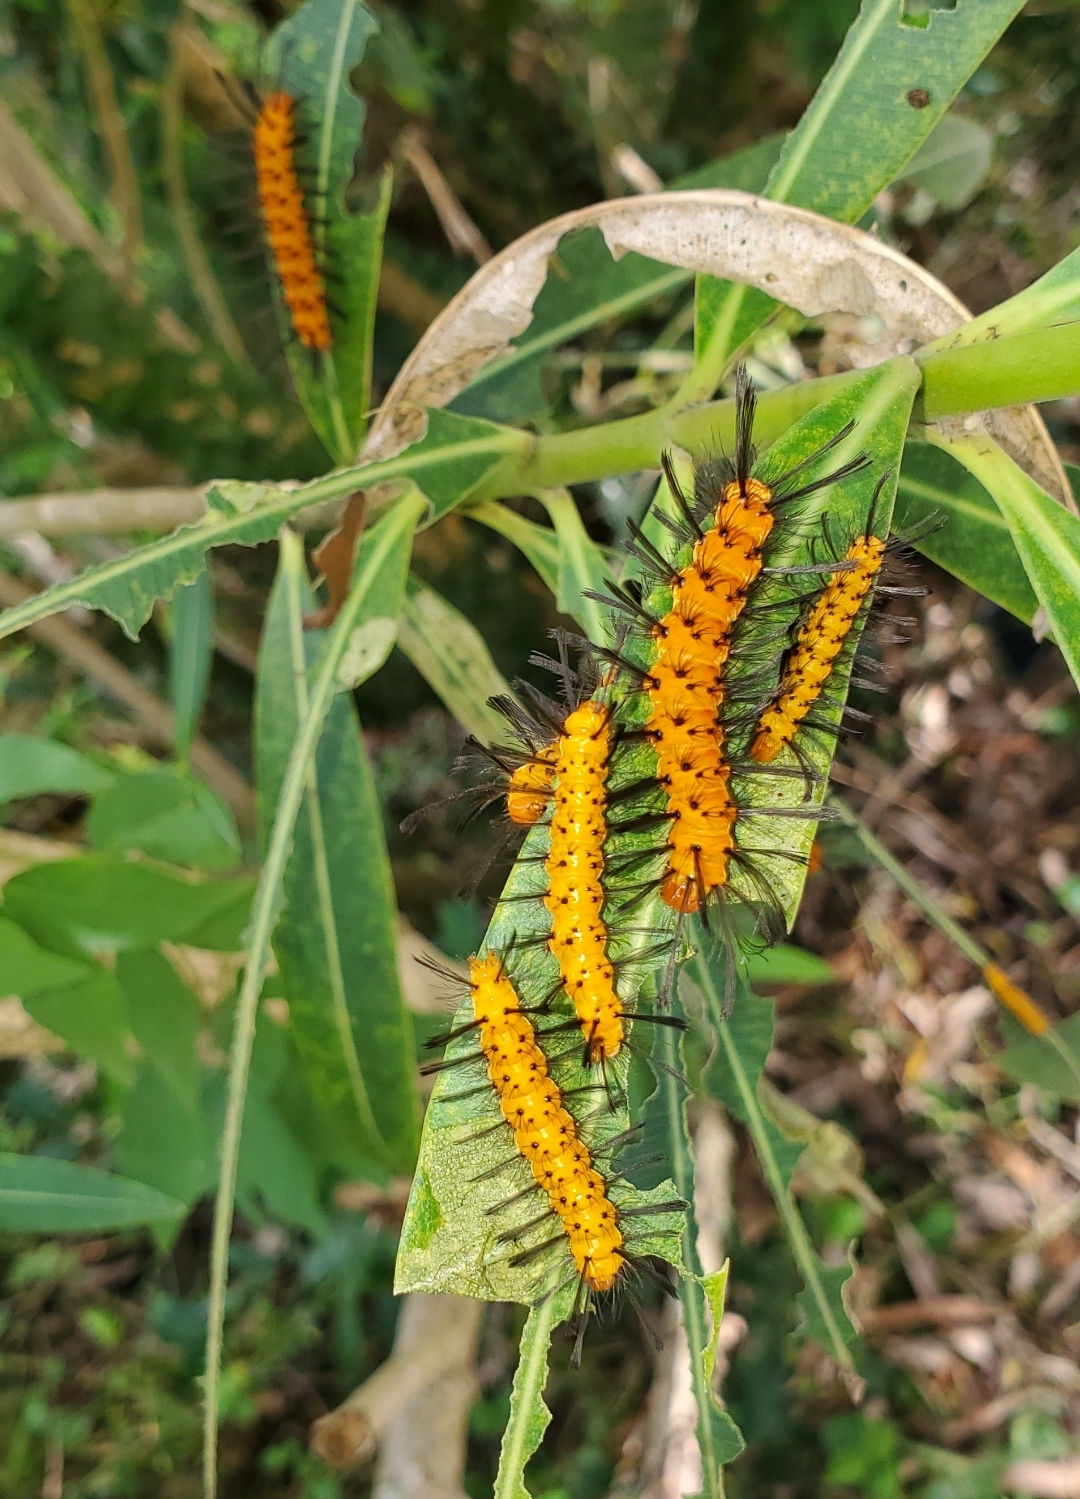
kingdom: Animalia
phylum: Arthropoda
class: Insecta
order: Lepidoptera
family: Erebidae
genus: Syntomeida
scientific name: Syntomeida epilais
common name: Polka-dot wasp moth
